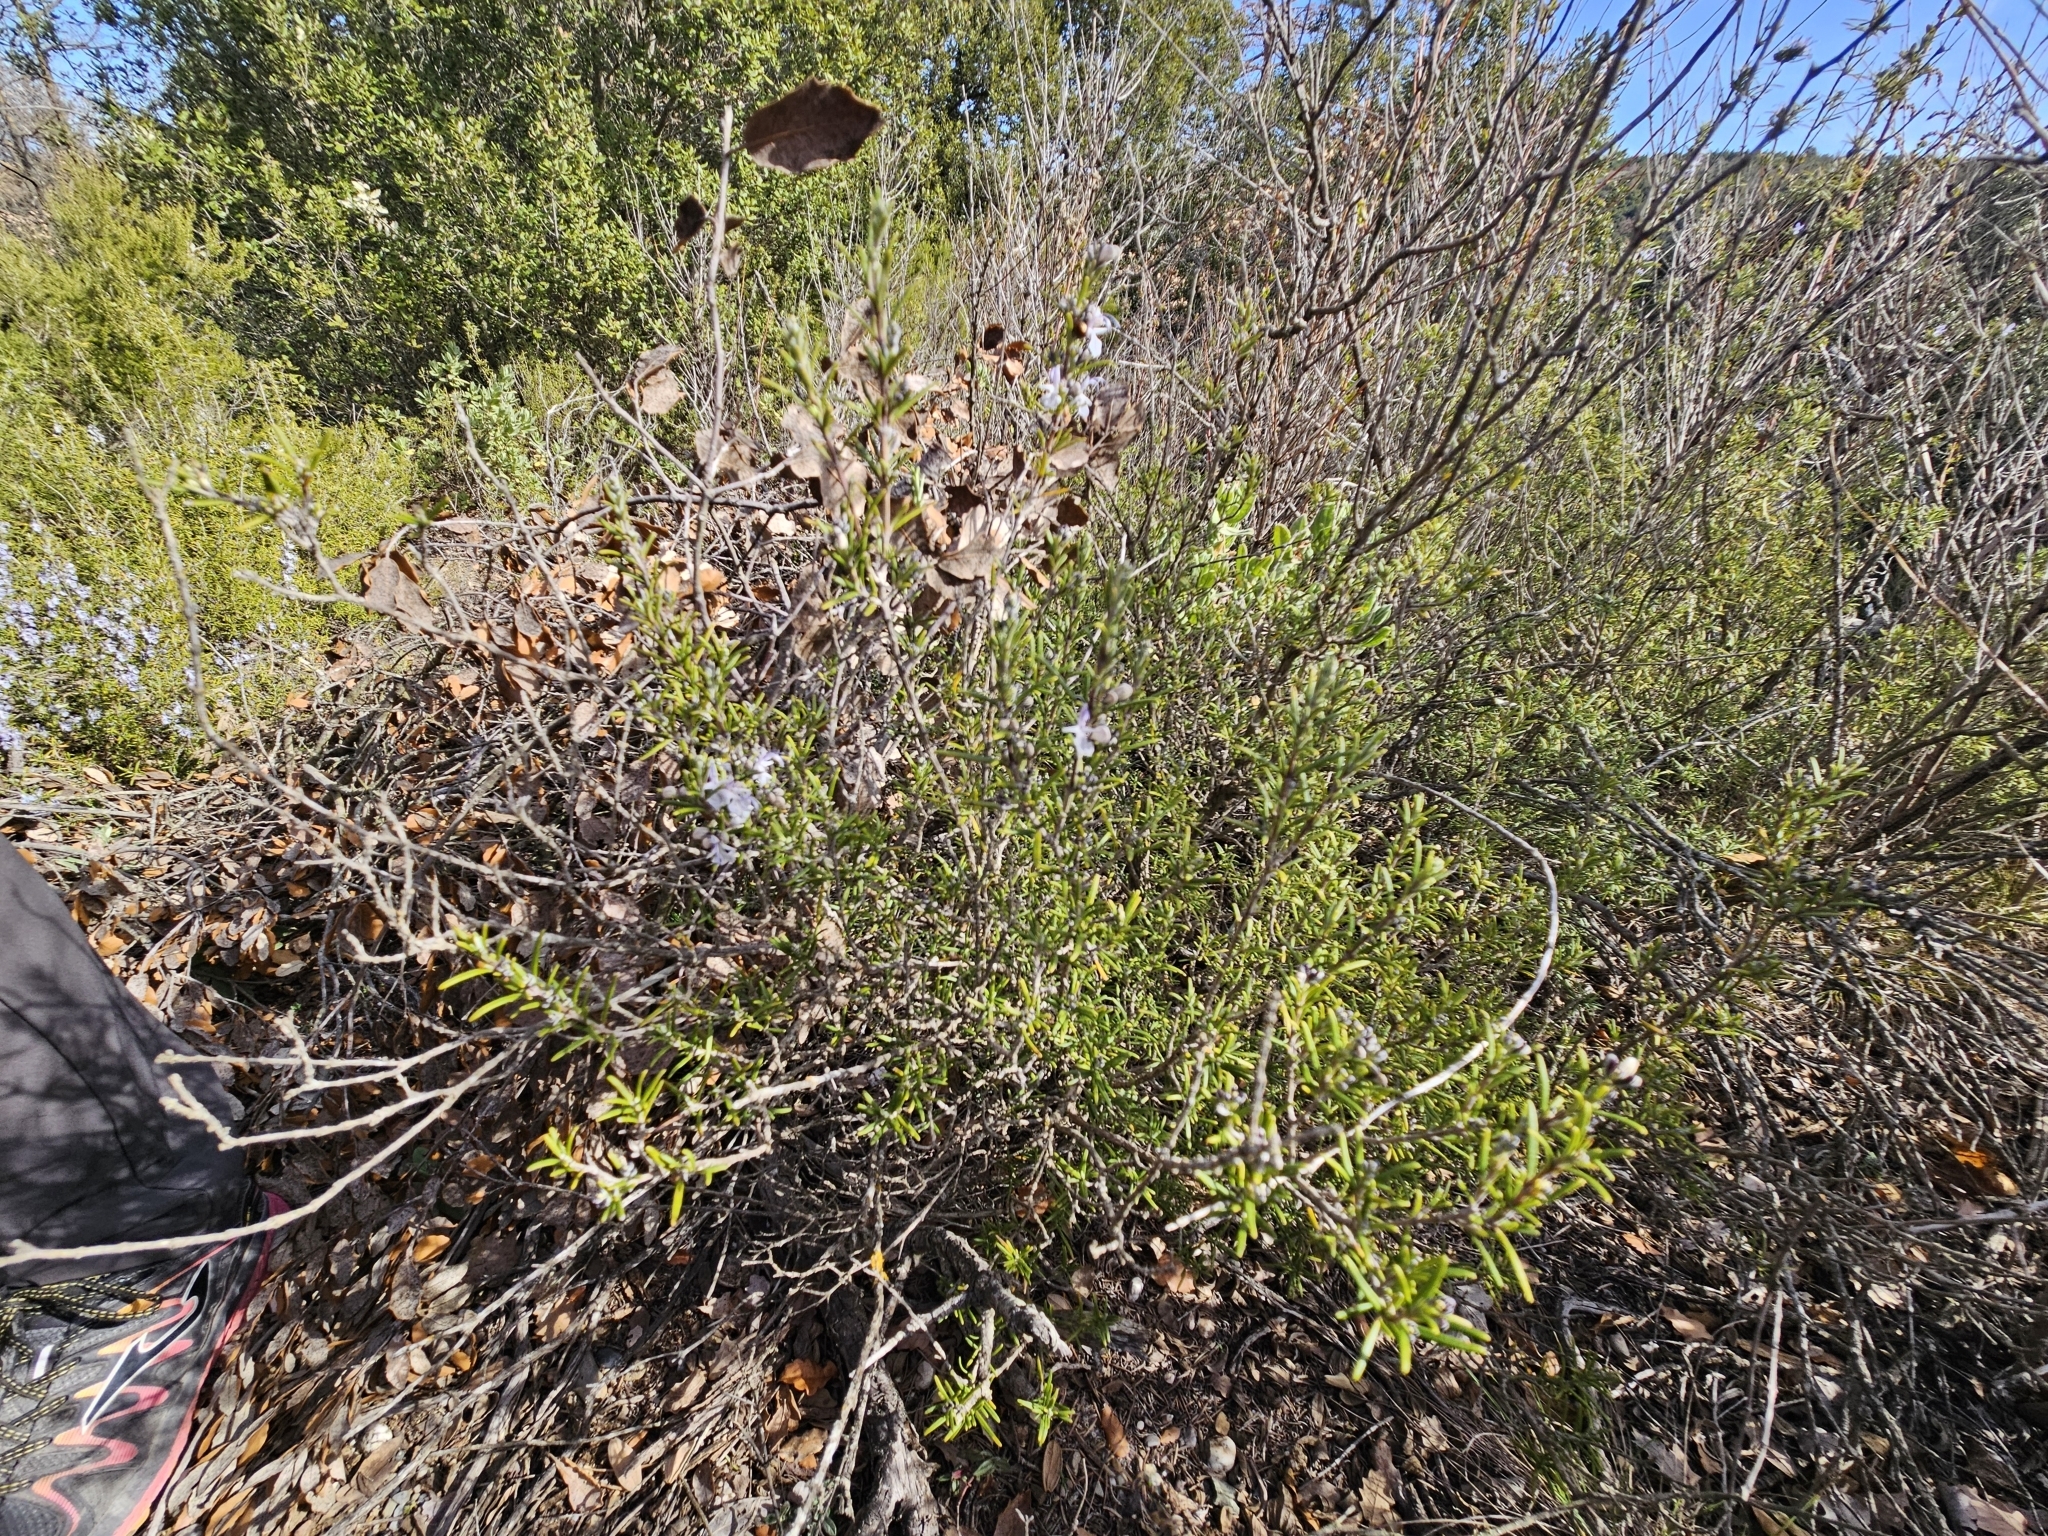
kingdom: Plantae
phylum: Tracheophyta
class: Magnoliopsida
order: Lamiales
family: Lamiaceae
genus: Salvia
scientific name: Salvia rosmarinus
